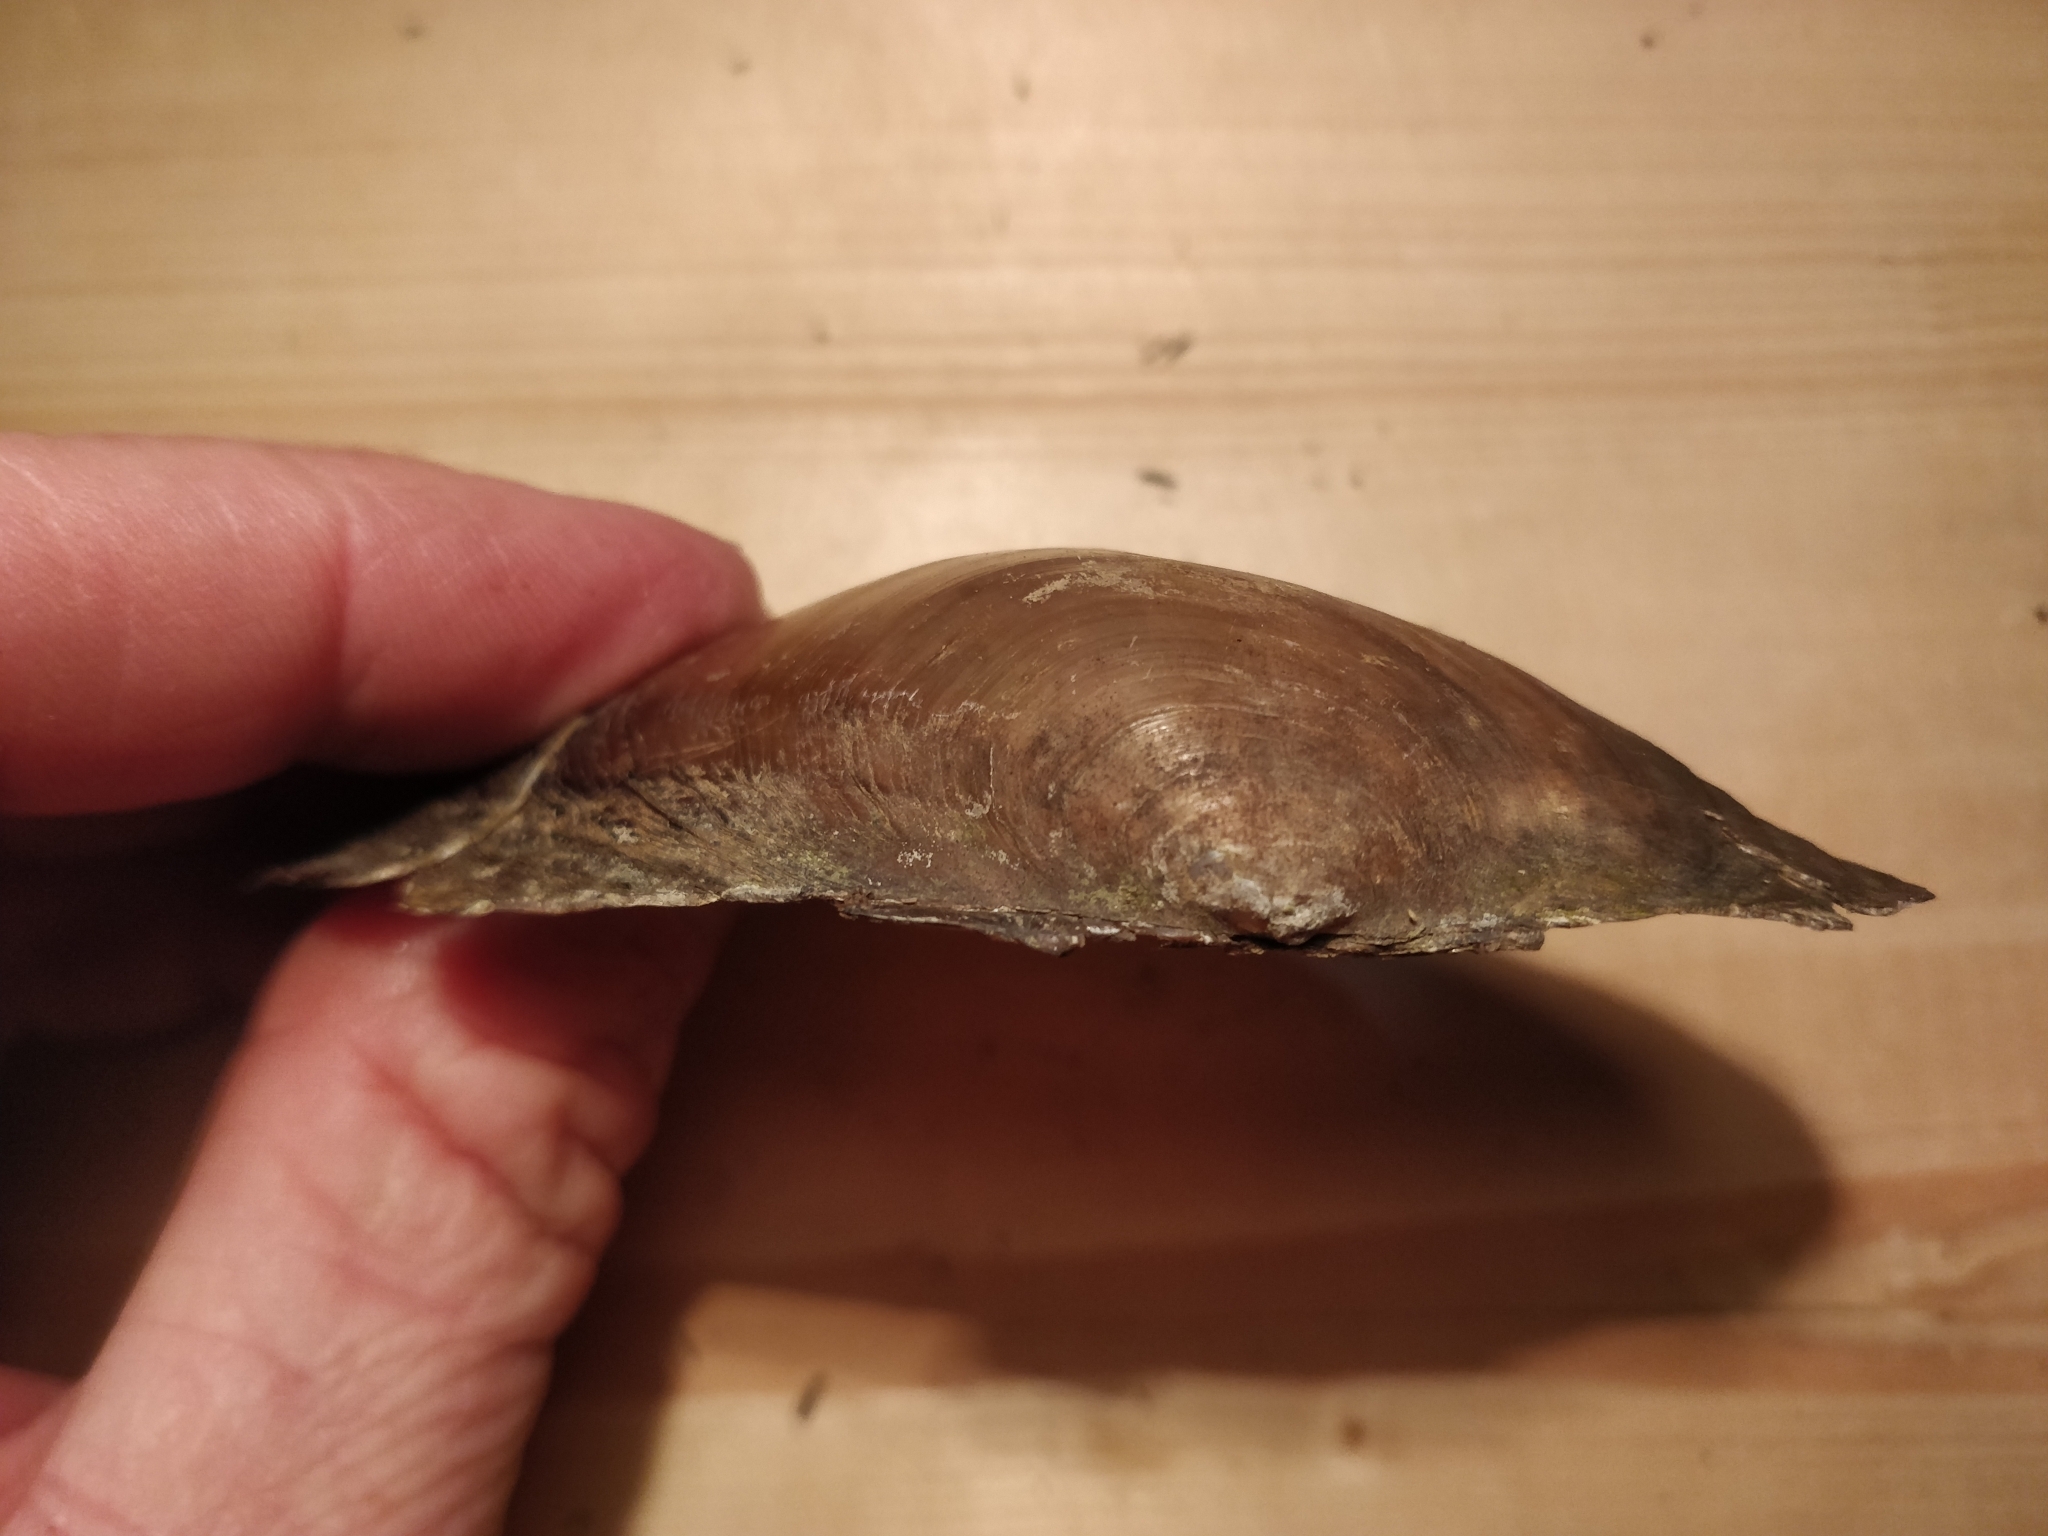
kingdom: Animalia
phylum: Mollusca
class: Bivalvia
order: Unionida
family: Unionidae
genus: Pyganodon
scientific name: Pyganodon grandis
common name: Giant floater
